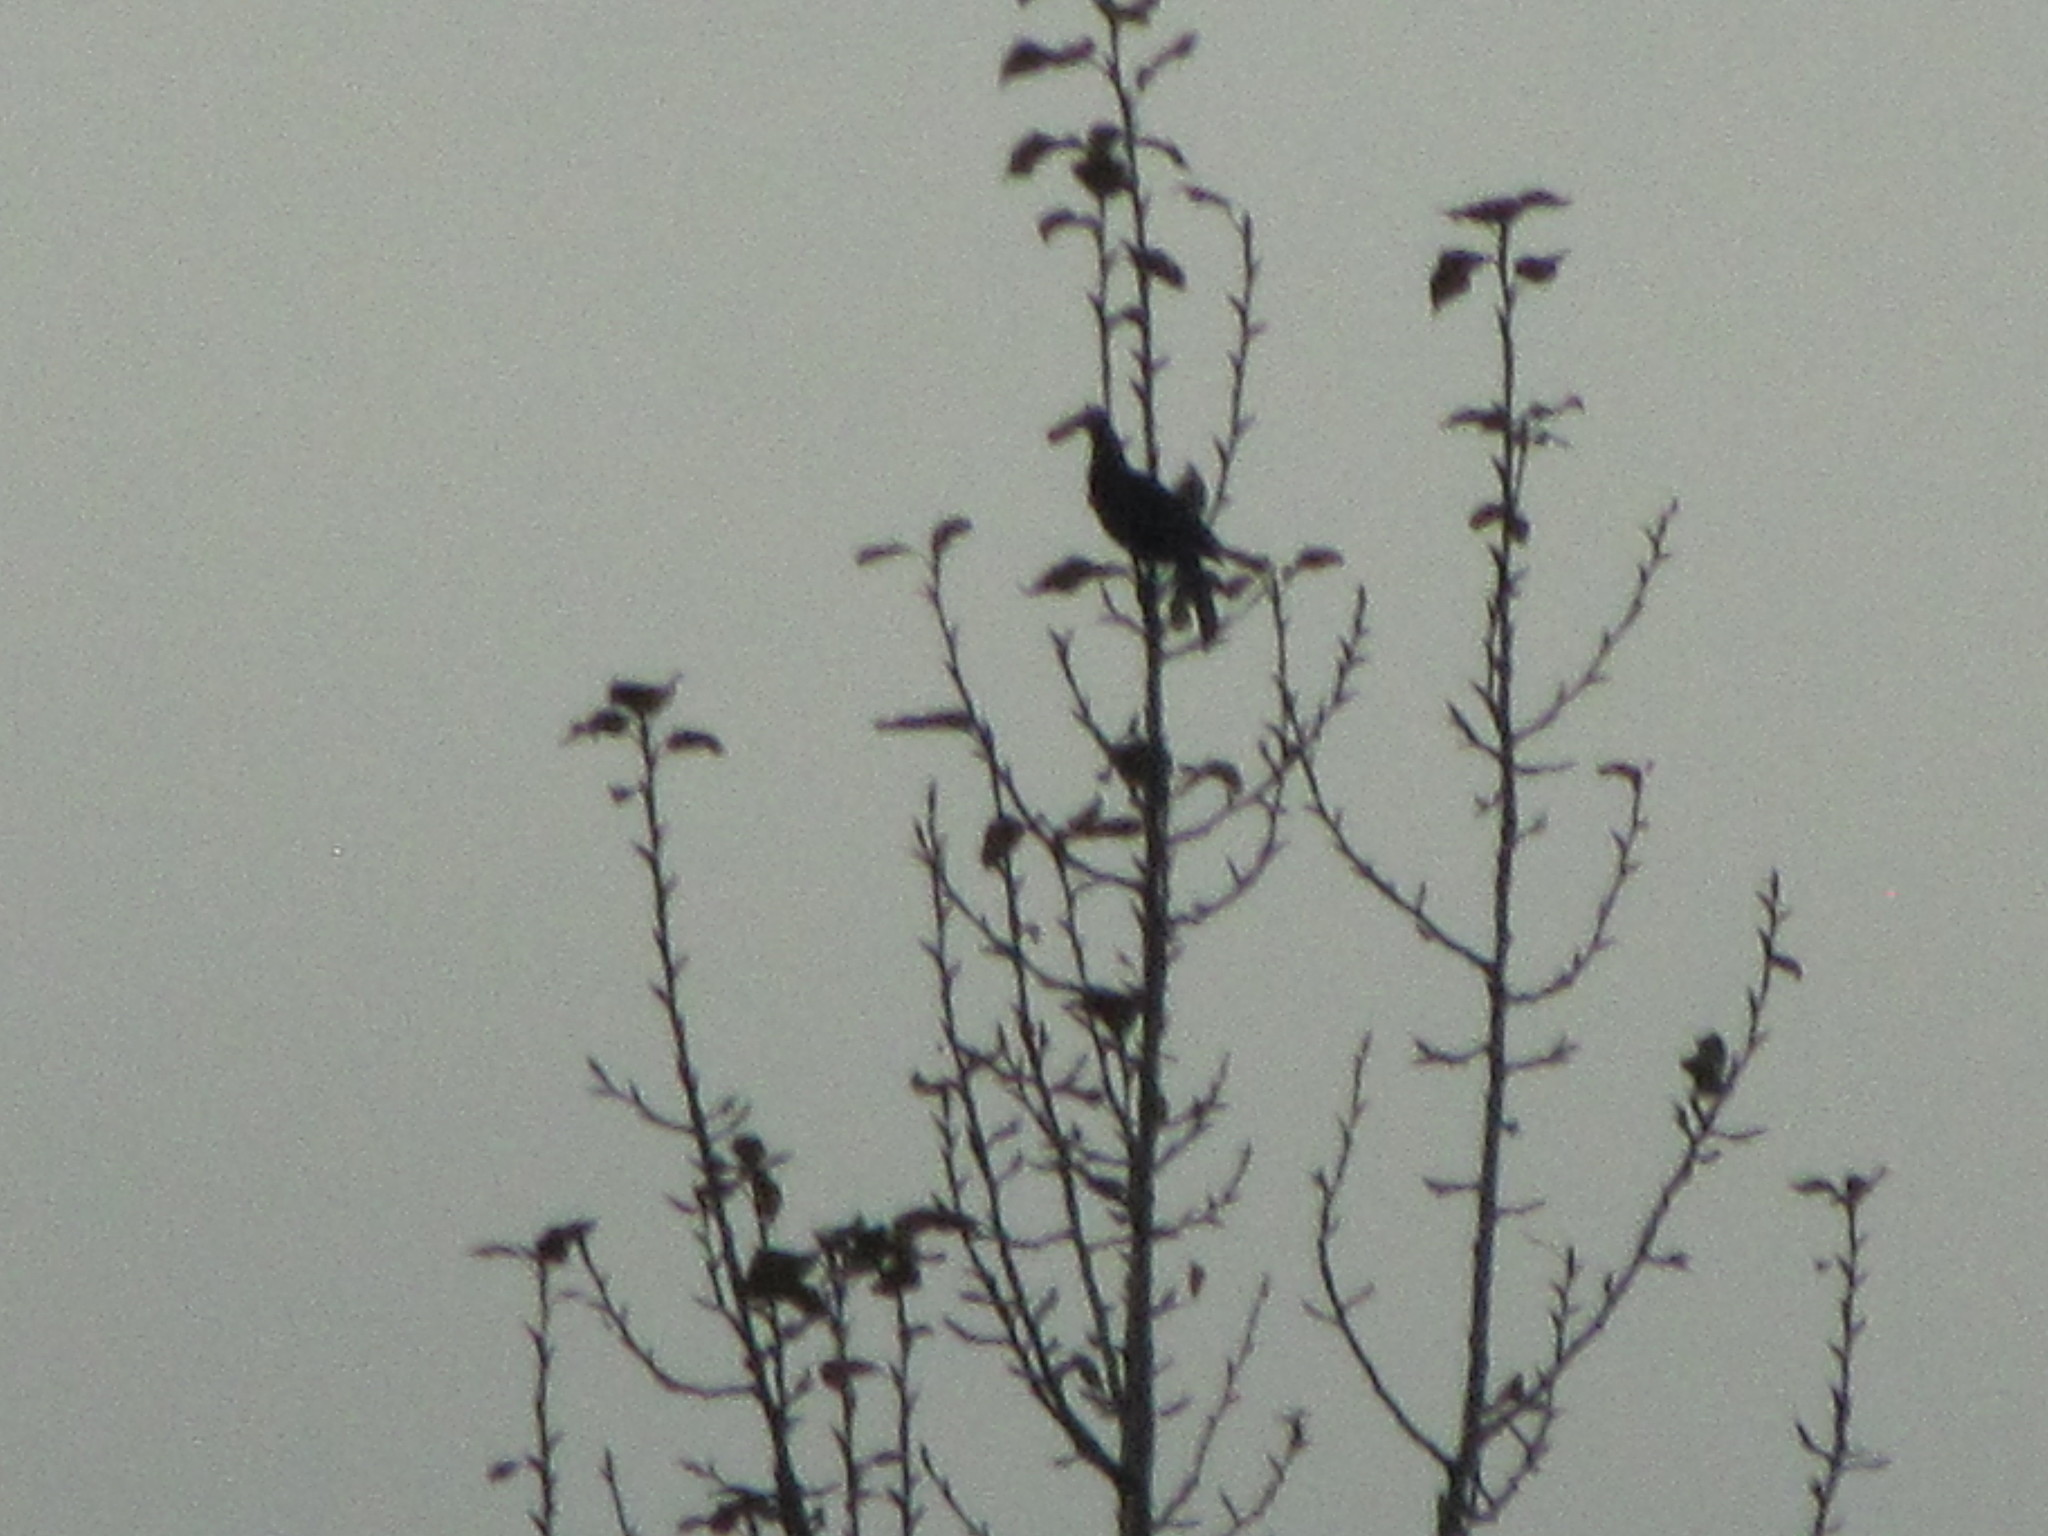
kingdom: Animalia
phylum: Chordata
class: Aves
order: Passeriformes
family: Corvidae
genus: Cyanocitta
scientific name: Cyanocitta stelleri
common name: Steller's jay
